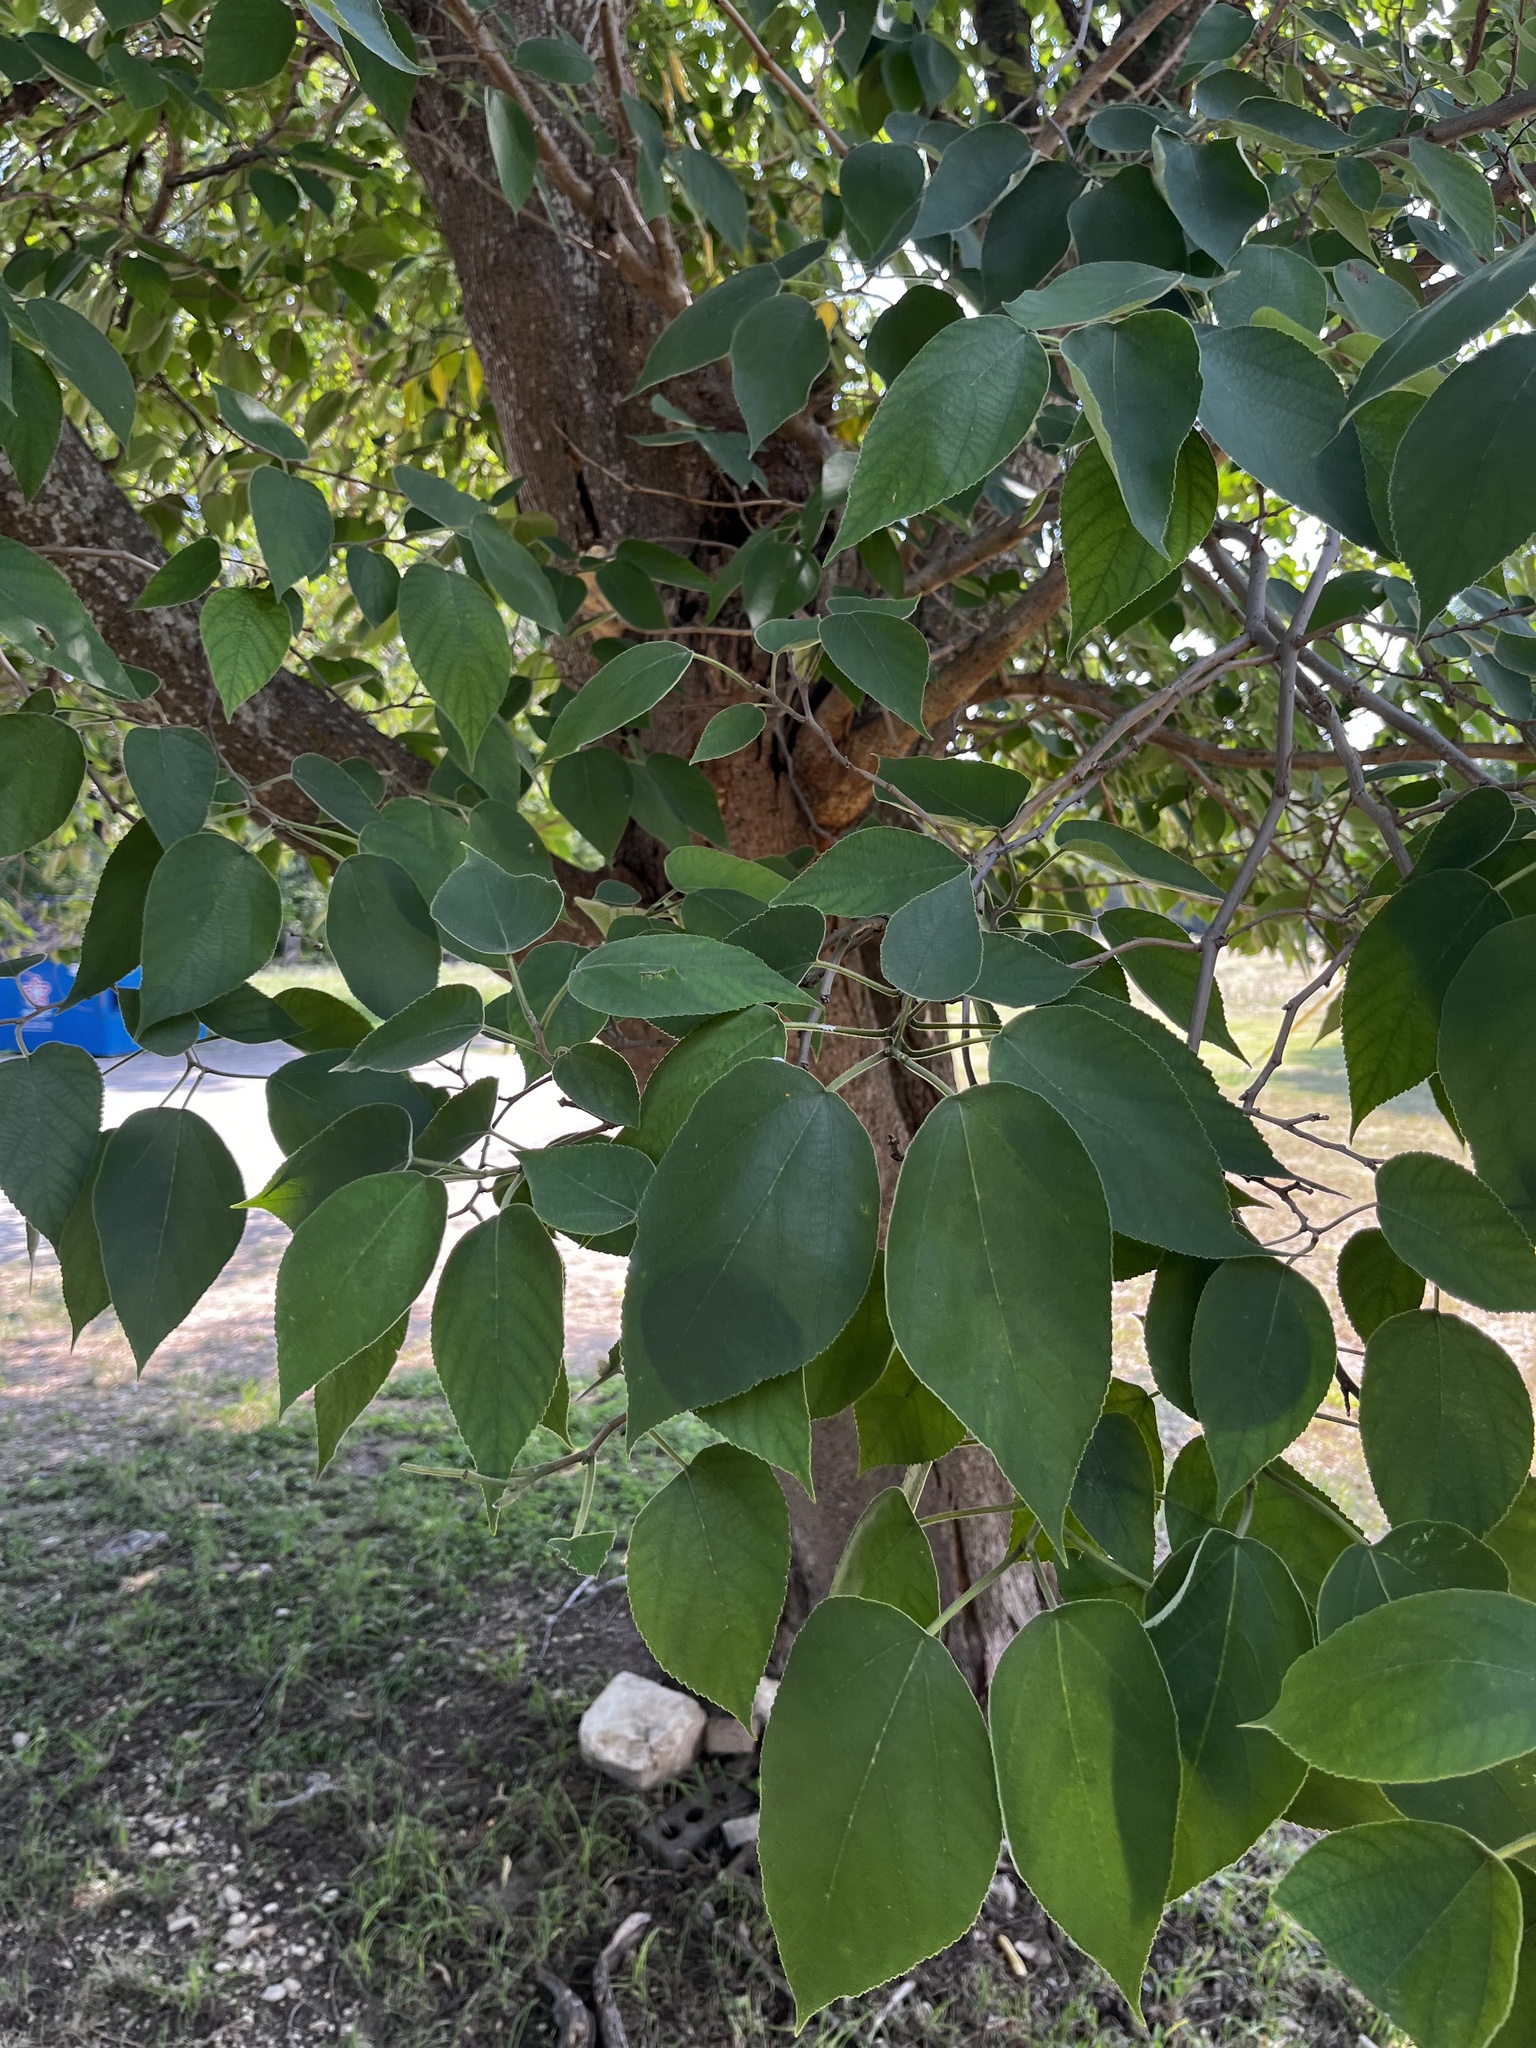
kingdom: Plantae
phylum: Tracheophyta
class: Magnoliopsida
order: Rosales
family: Moraceae
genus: Broussonetia
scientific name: Broussonetia papyrifera
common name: Paper mulberry
